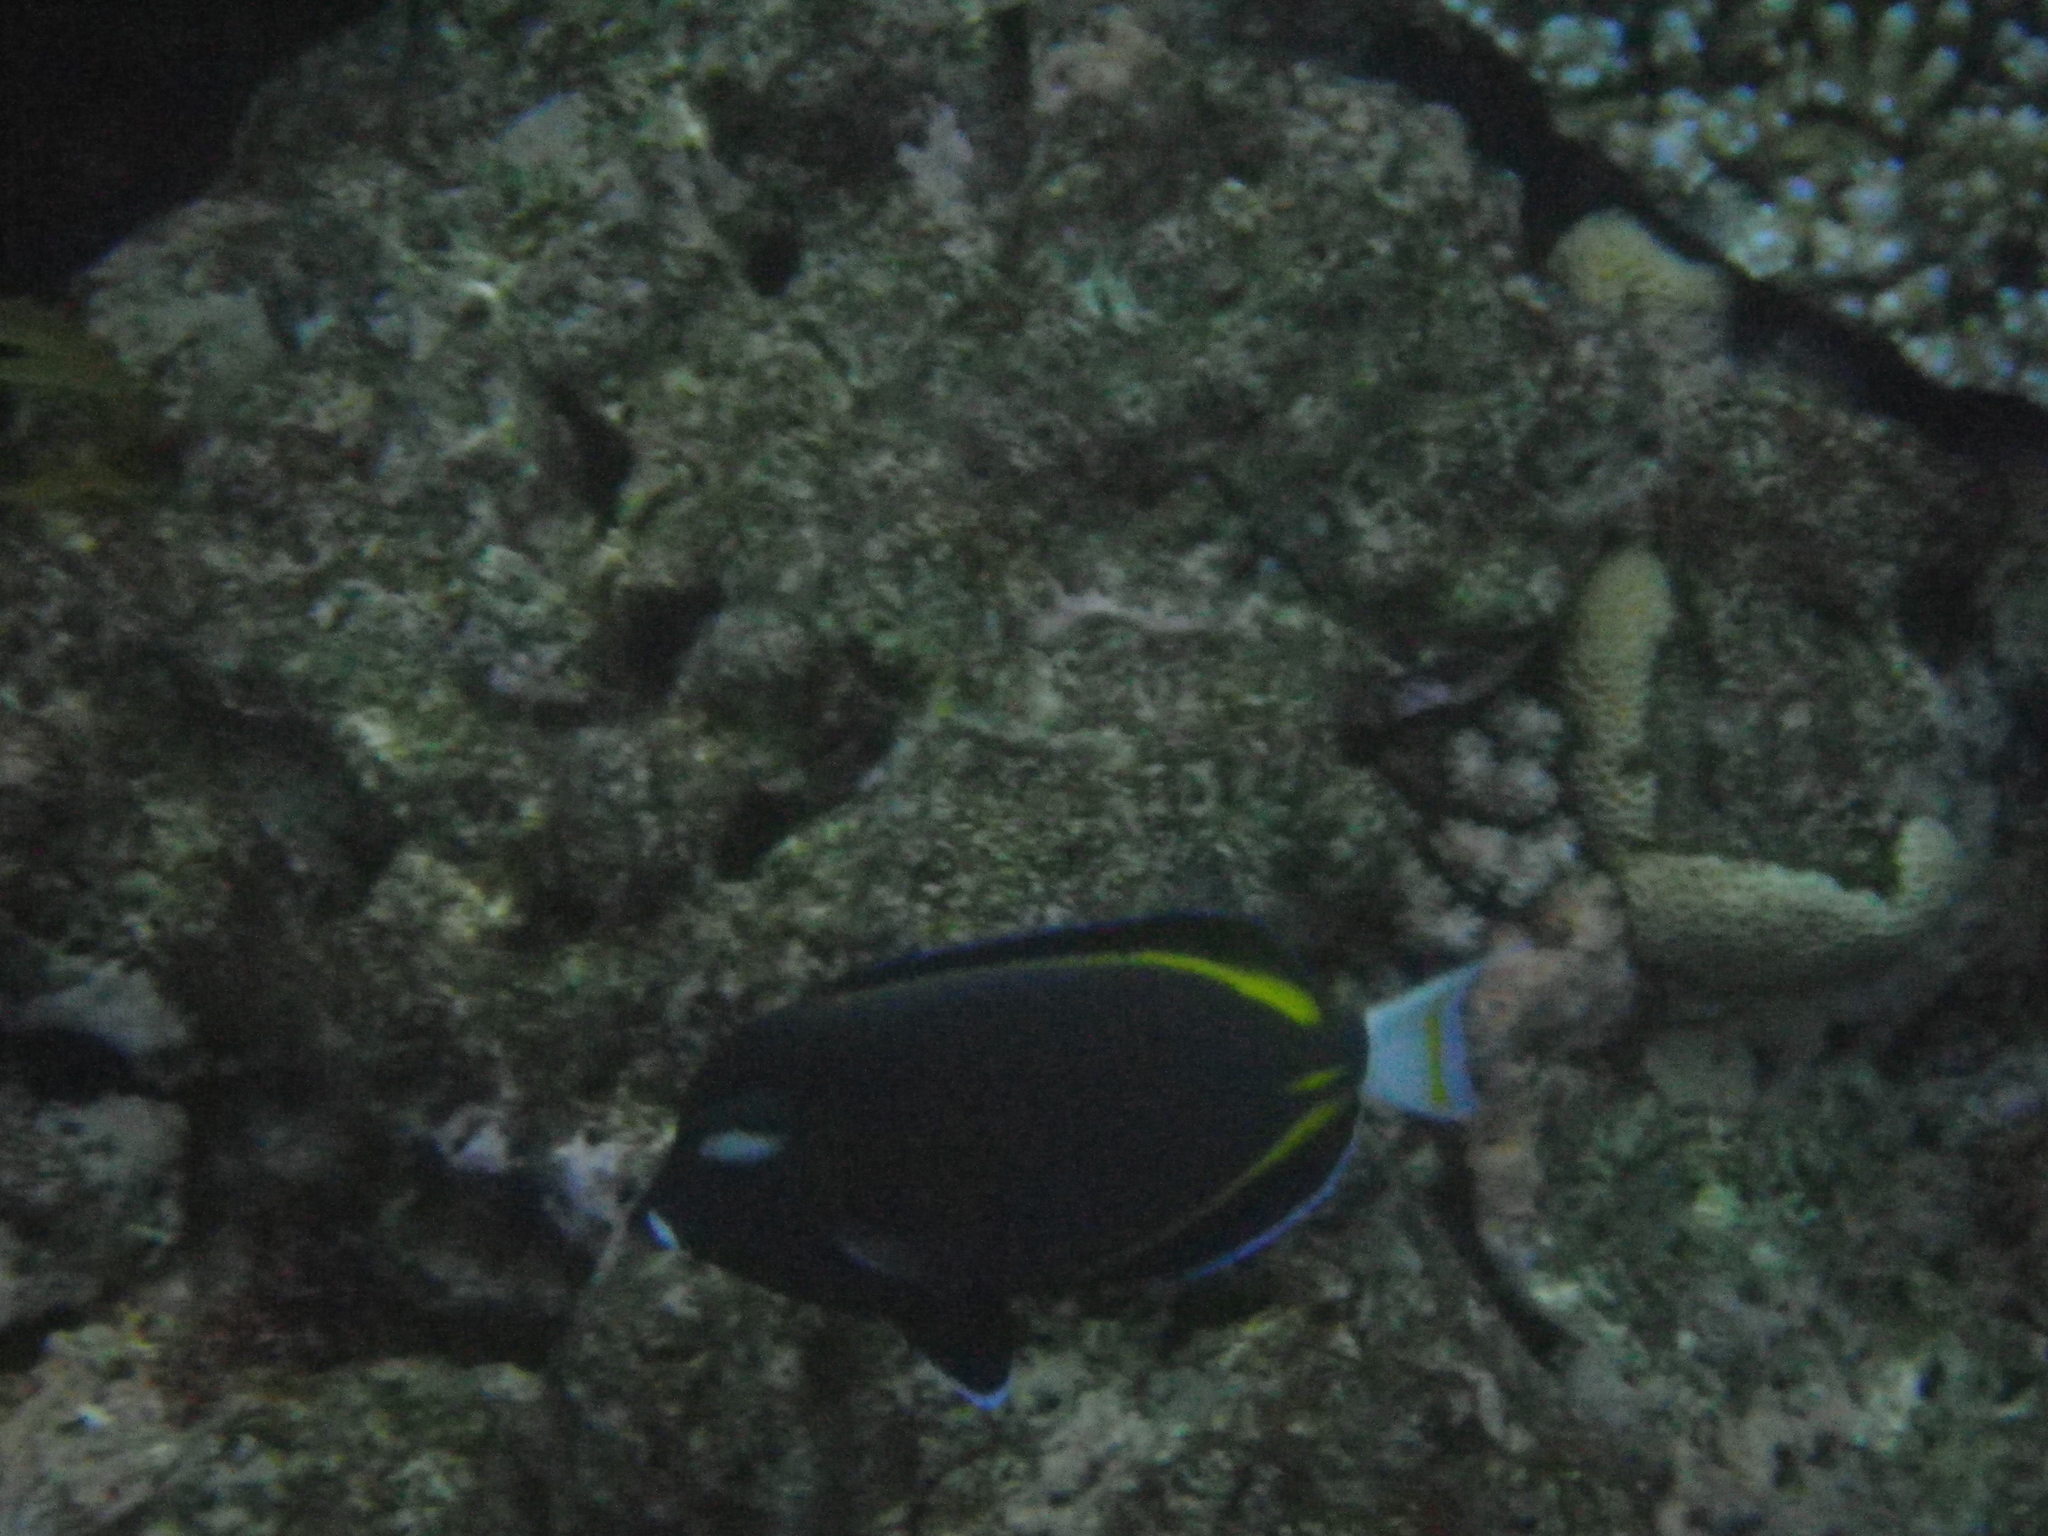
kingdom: Animalia
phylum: Chordata
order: Perciformes
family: Acanthuridae
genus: Acanthurus
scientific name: Acanthurus nigricans
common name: Whitecheek surgeonfish
